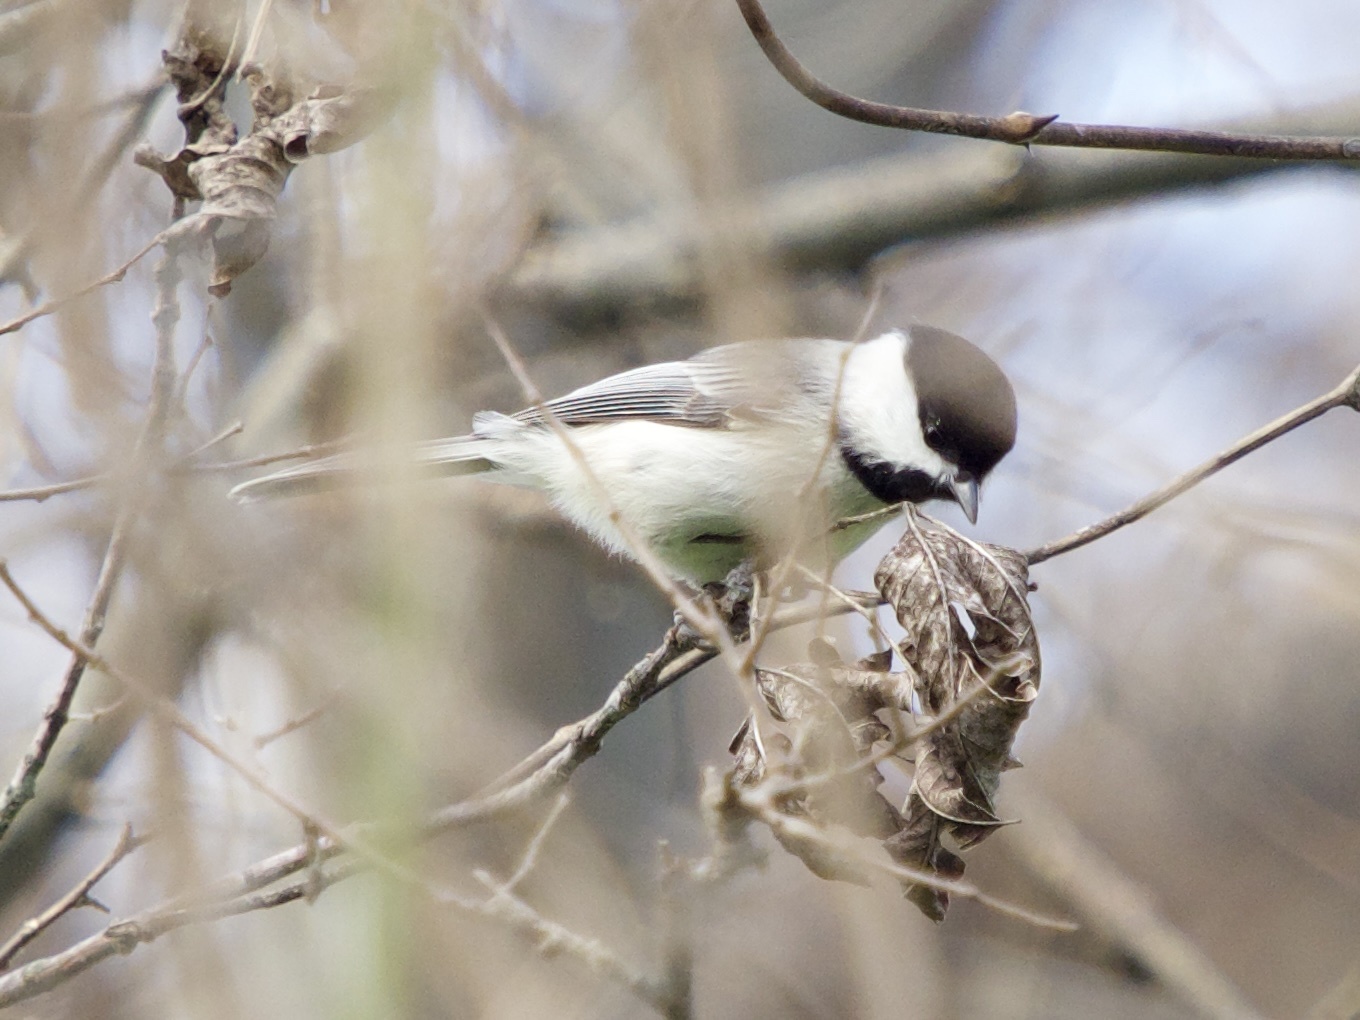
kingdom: Animalia
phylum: Chordata
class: Aves
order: Passeriformes
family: Paridae
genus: Poecile
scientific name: Poecile carolinensis
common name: Carolina chickadee
